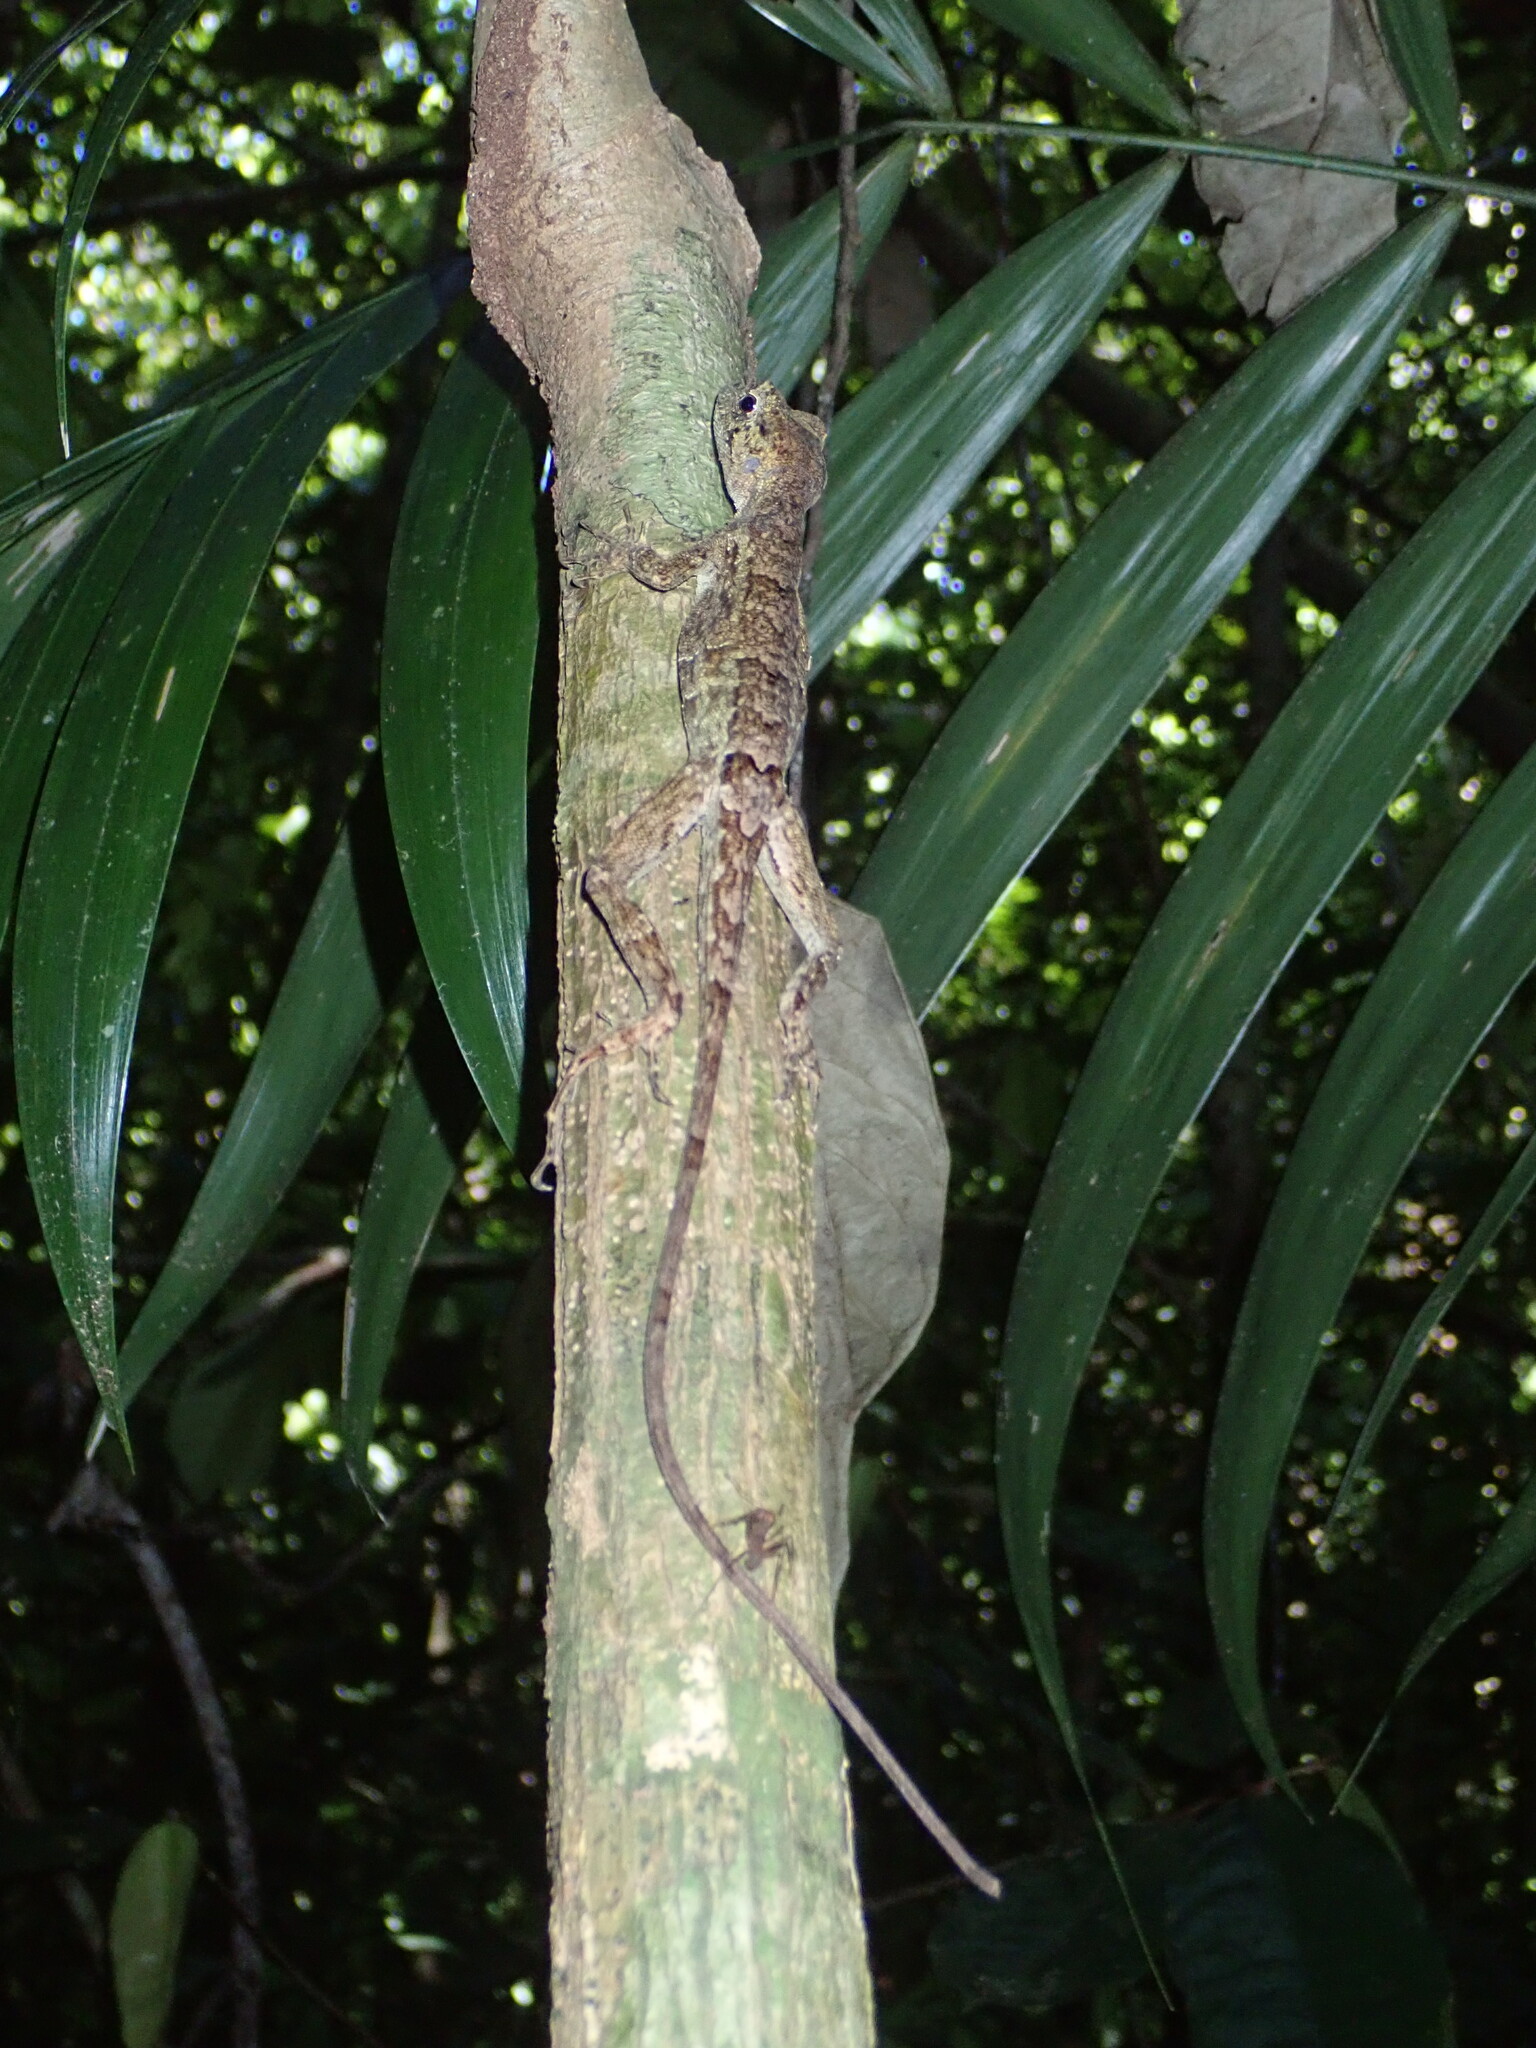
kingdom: Animalia
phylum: Chordata
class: Squamata
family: Dactyloidae
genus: Anolis
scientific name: Anolis capito
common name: Bighead anole
